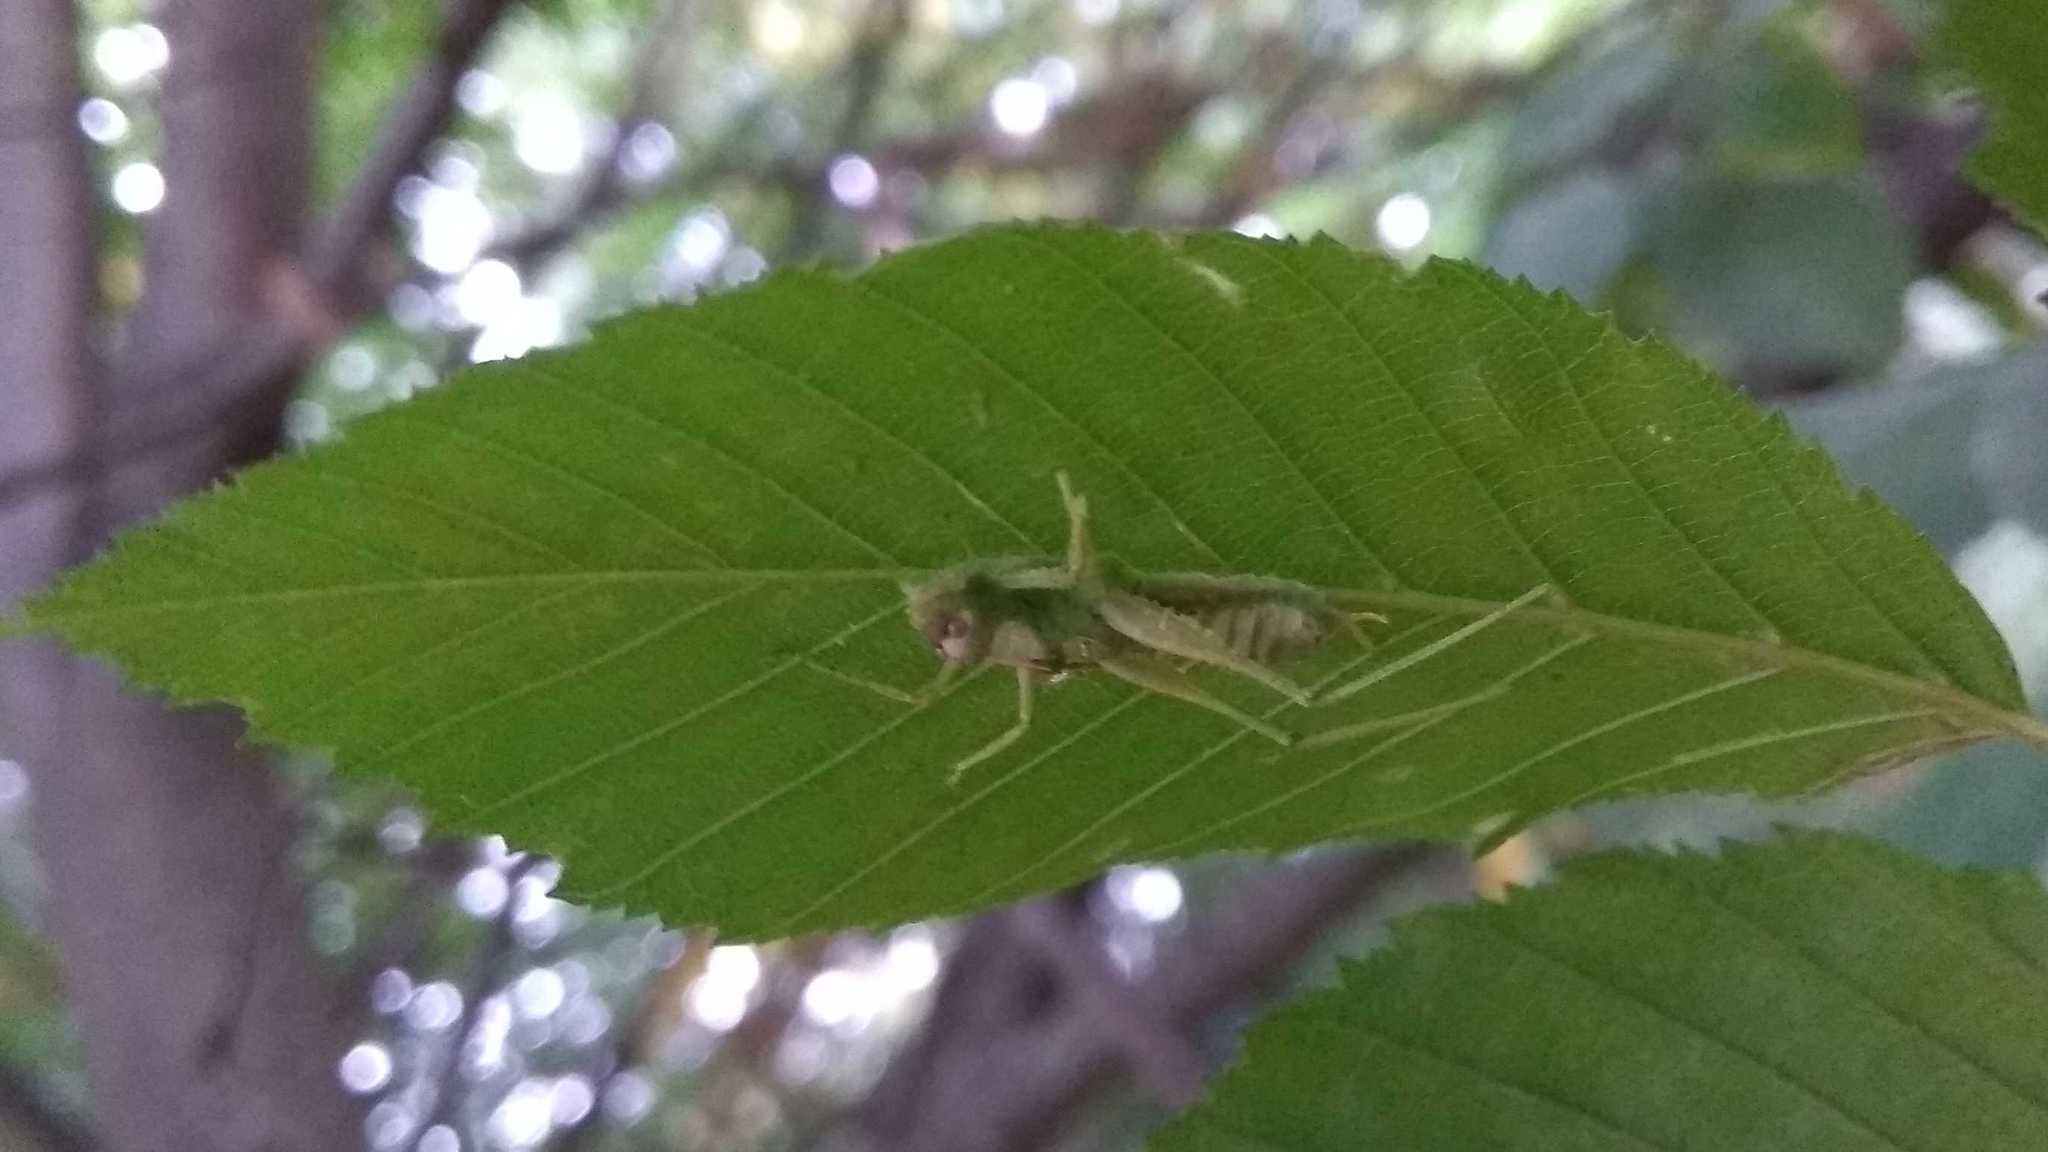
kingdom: Animalia
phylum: Arthropoda
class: Insecta
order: Orthoptera
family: Tettigoniidae
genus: Meconema
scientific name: Meconema meridionale
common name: Southern oak bush-cricket
